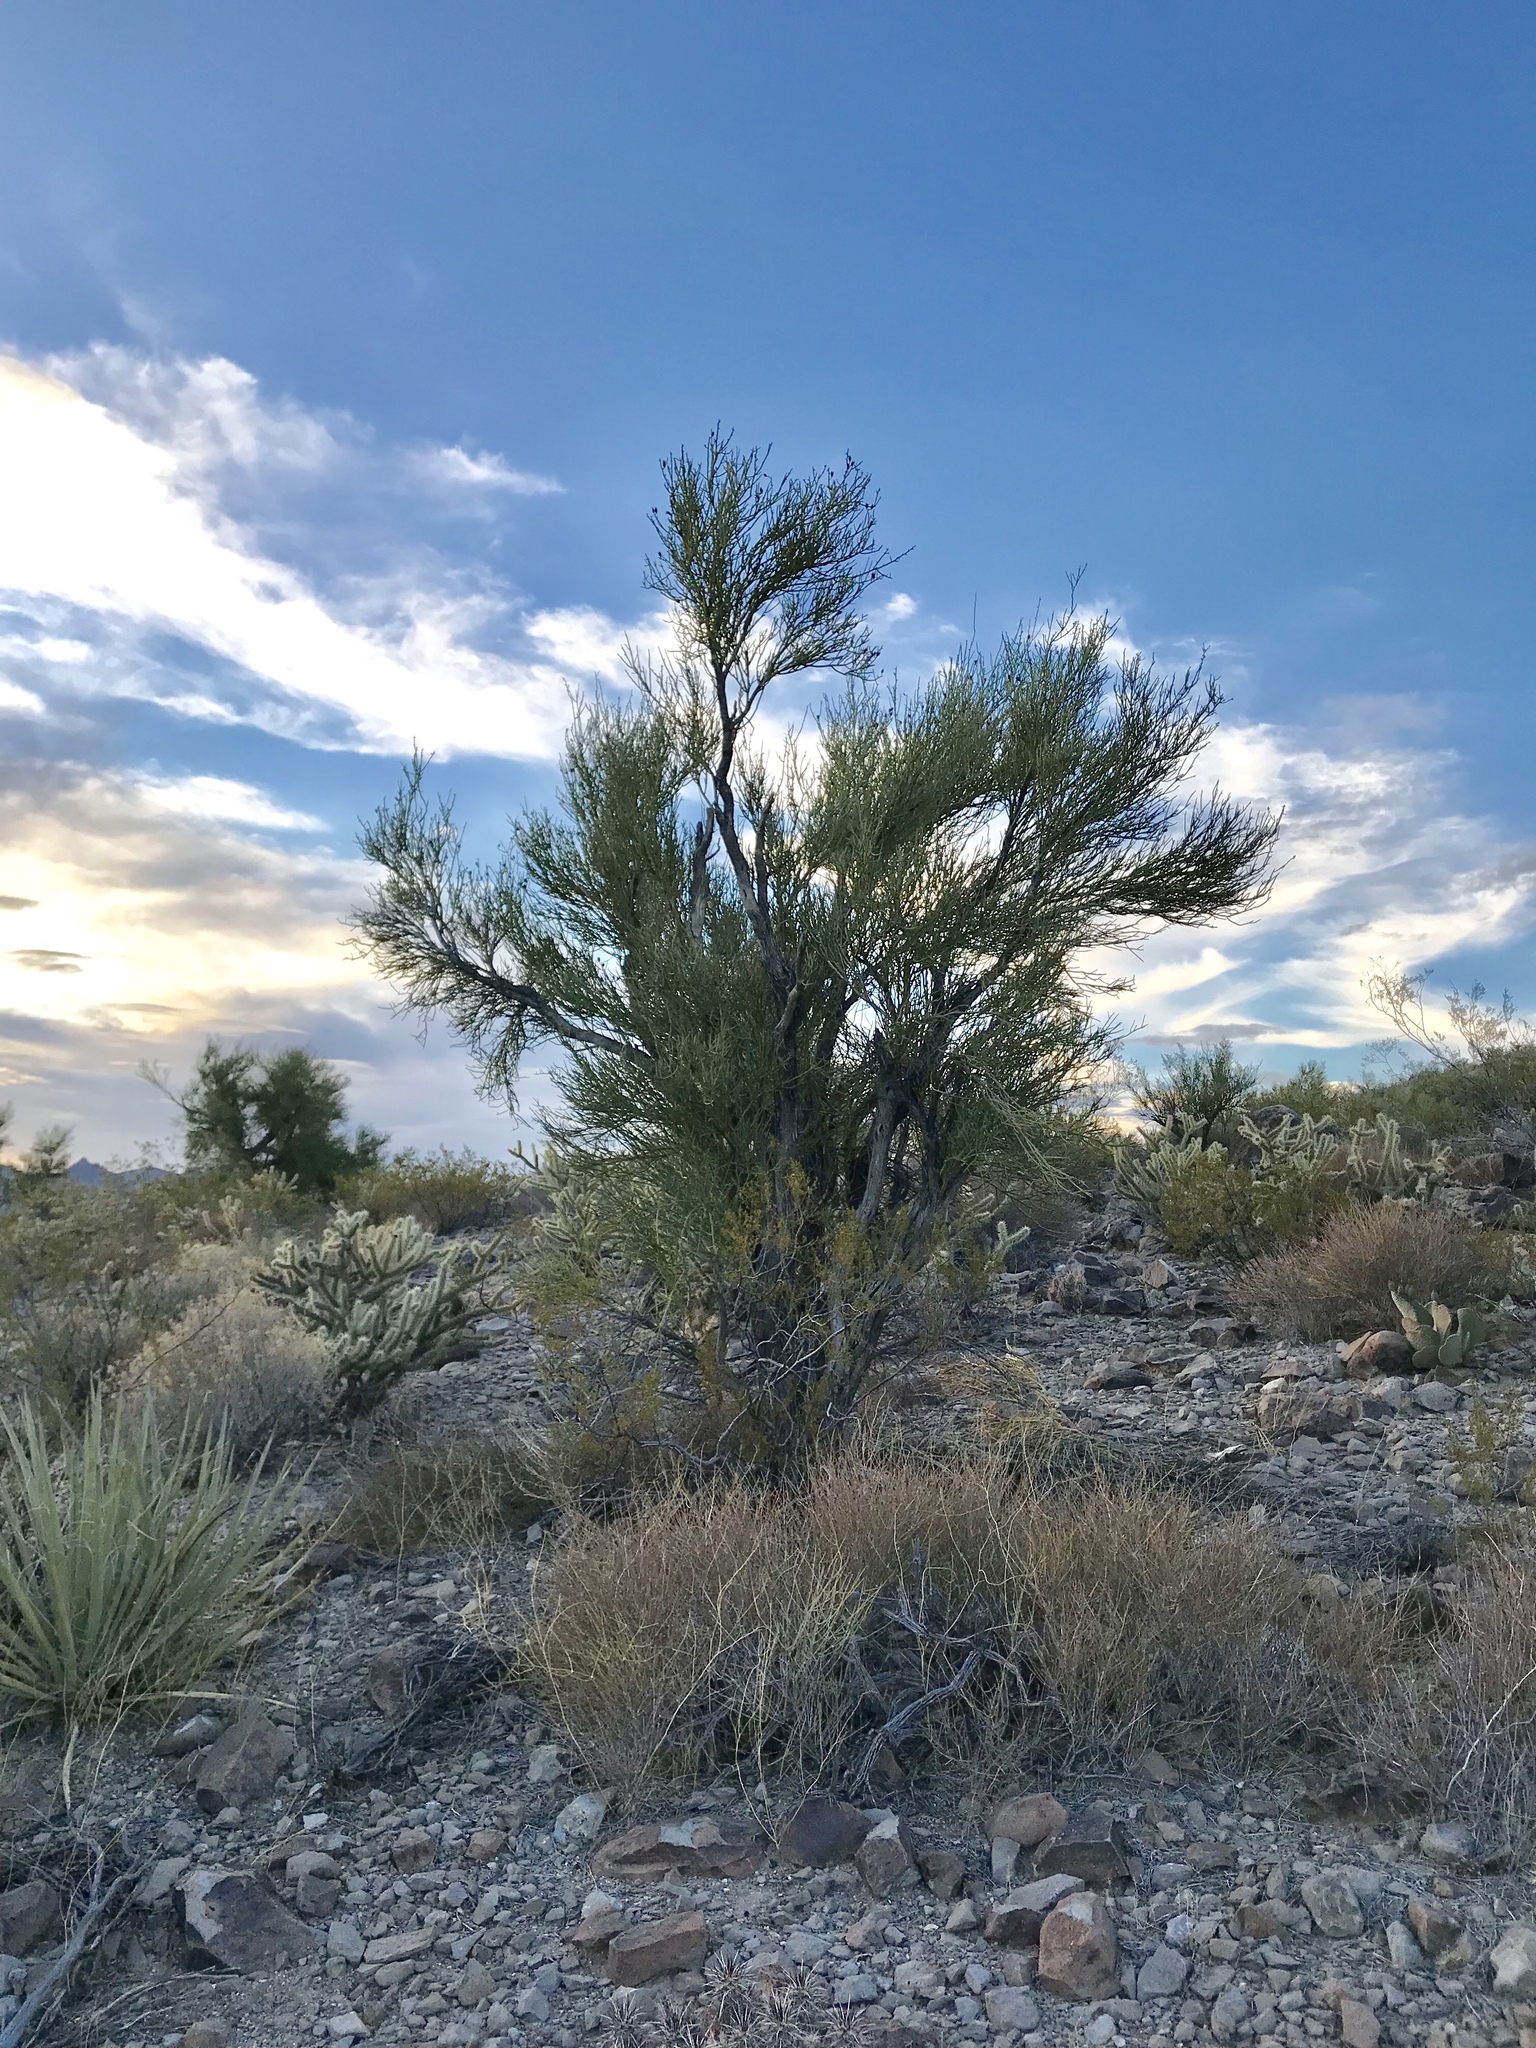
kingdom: Plantae
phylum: Tracheophyta
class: Magnoliopsida
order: Celastrales
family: Celastraceae
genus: Canotia
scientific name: Canotia holacantha
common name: Crucifixion thorns
